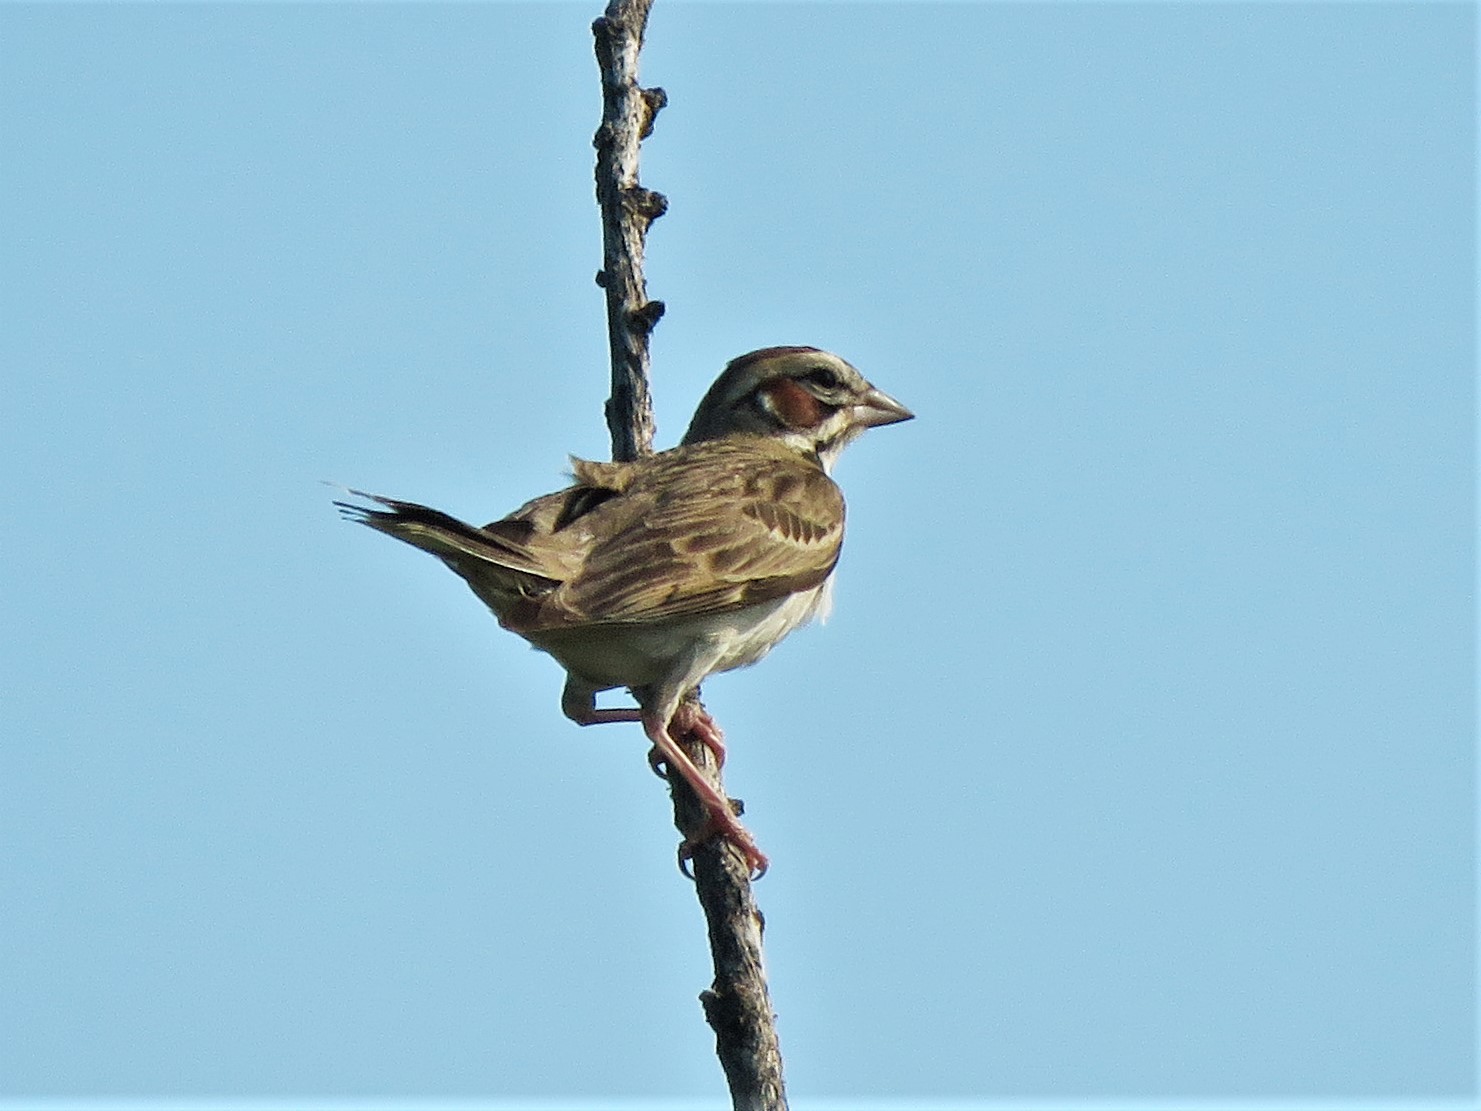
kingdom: Animalia
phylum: Chordata
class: Aves
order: Passeriformes
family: Passerellidae
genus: Chondestes
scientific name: Chondestes grammacus
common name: Lark sparrow
